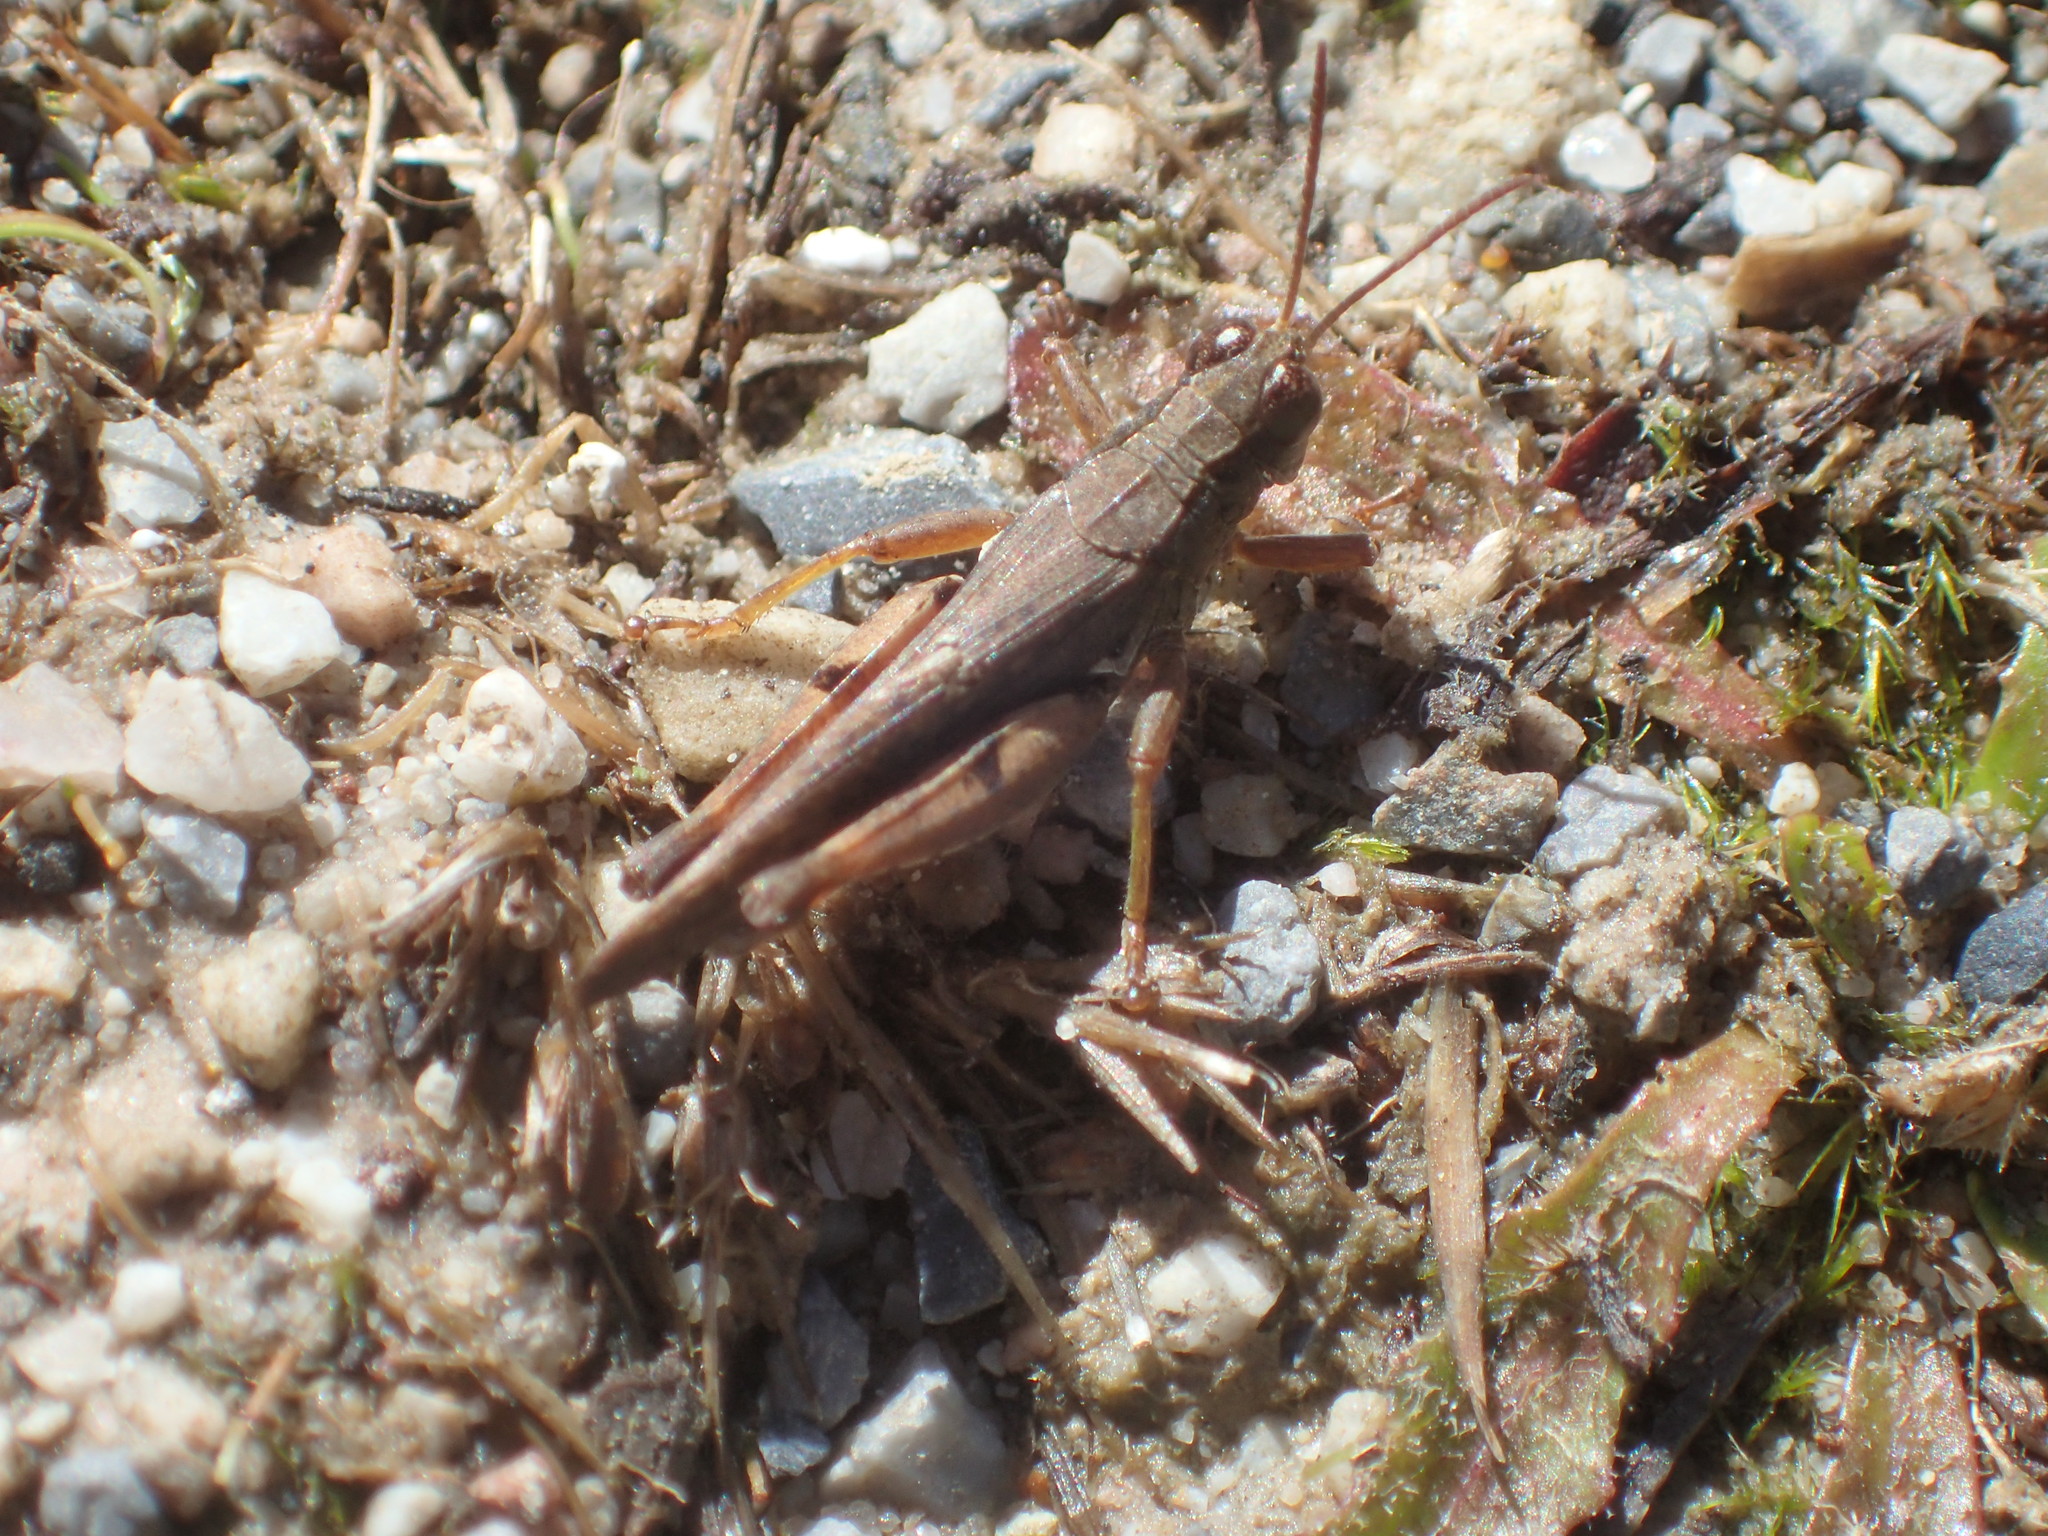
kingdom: Animalia
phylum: Arthropoda
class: Insecta
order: Orthoptera
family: Acrididae
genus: Phaulacridium
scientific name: Phaulacridium vittatum
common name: Wingless grasshopper
